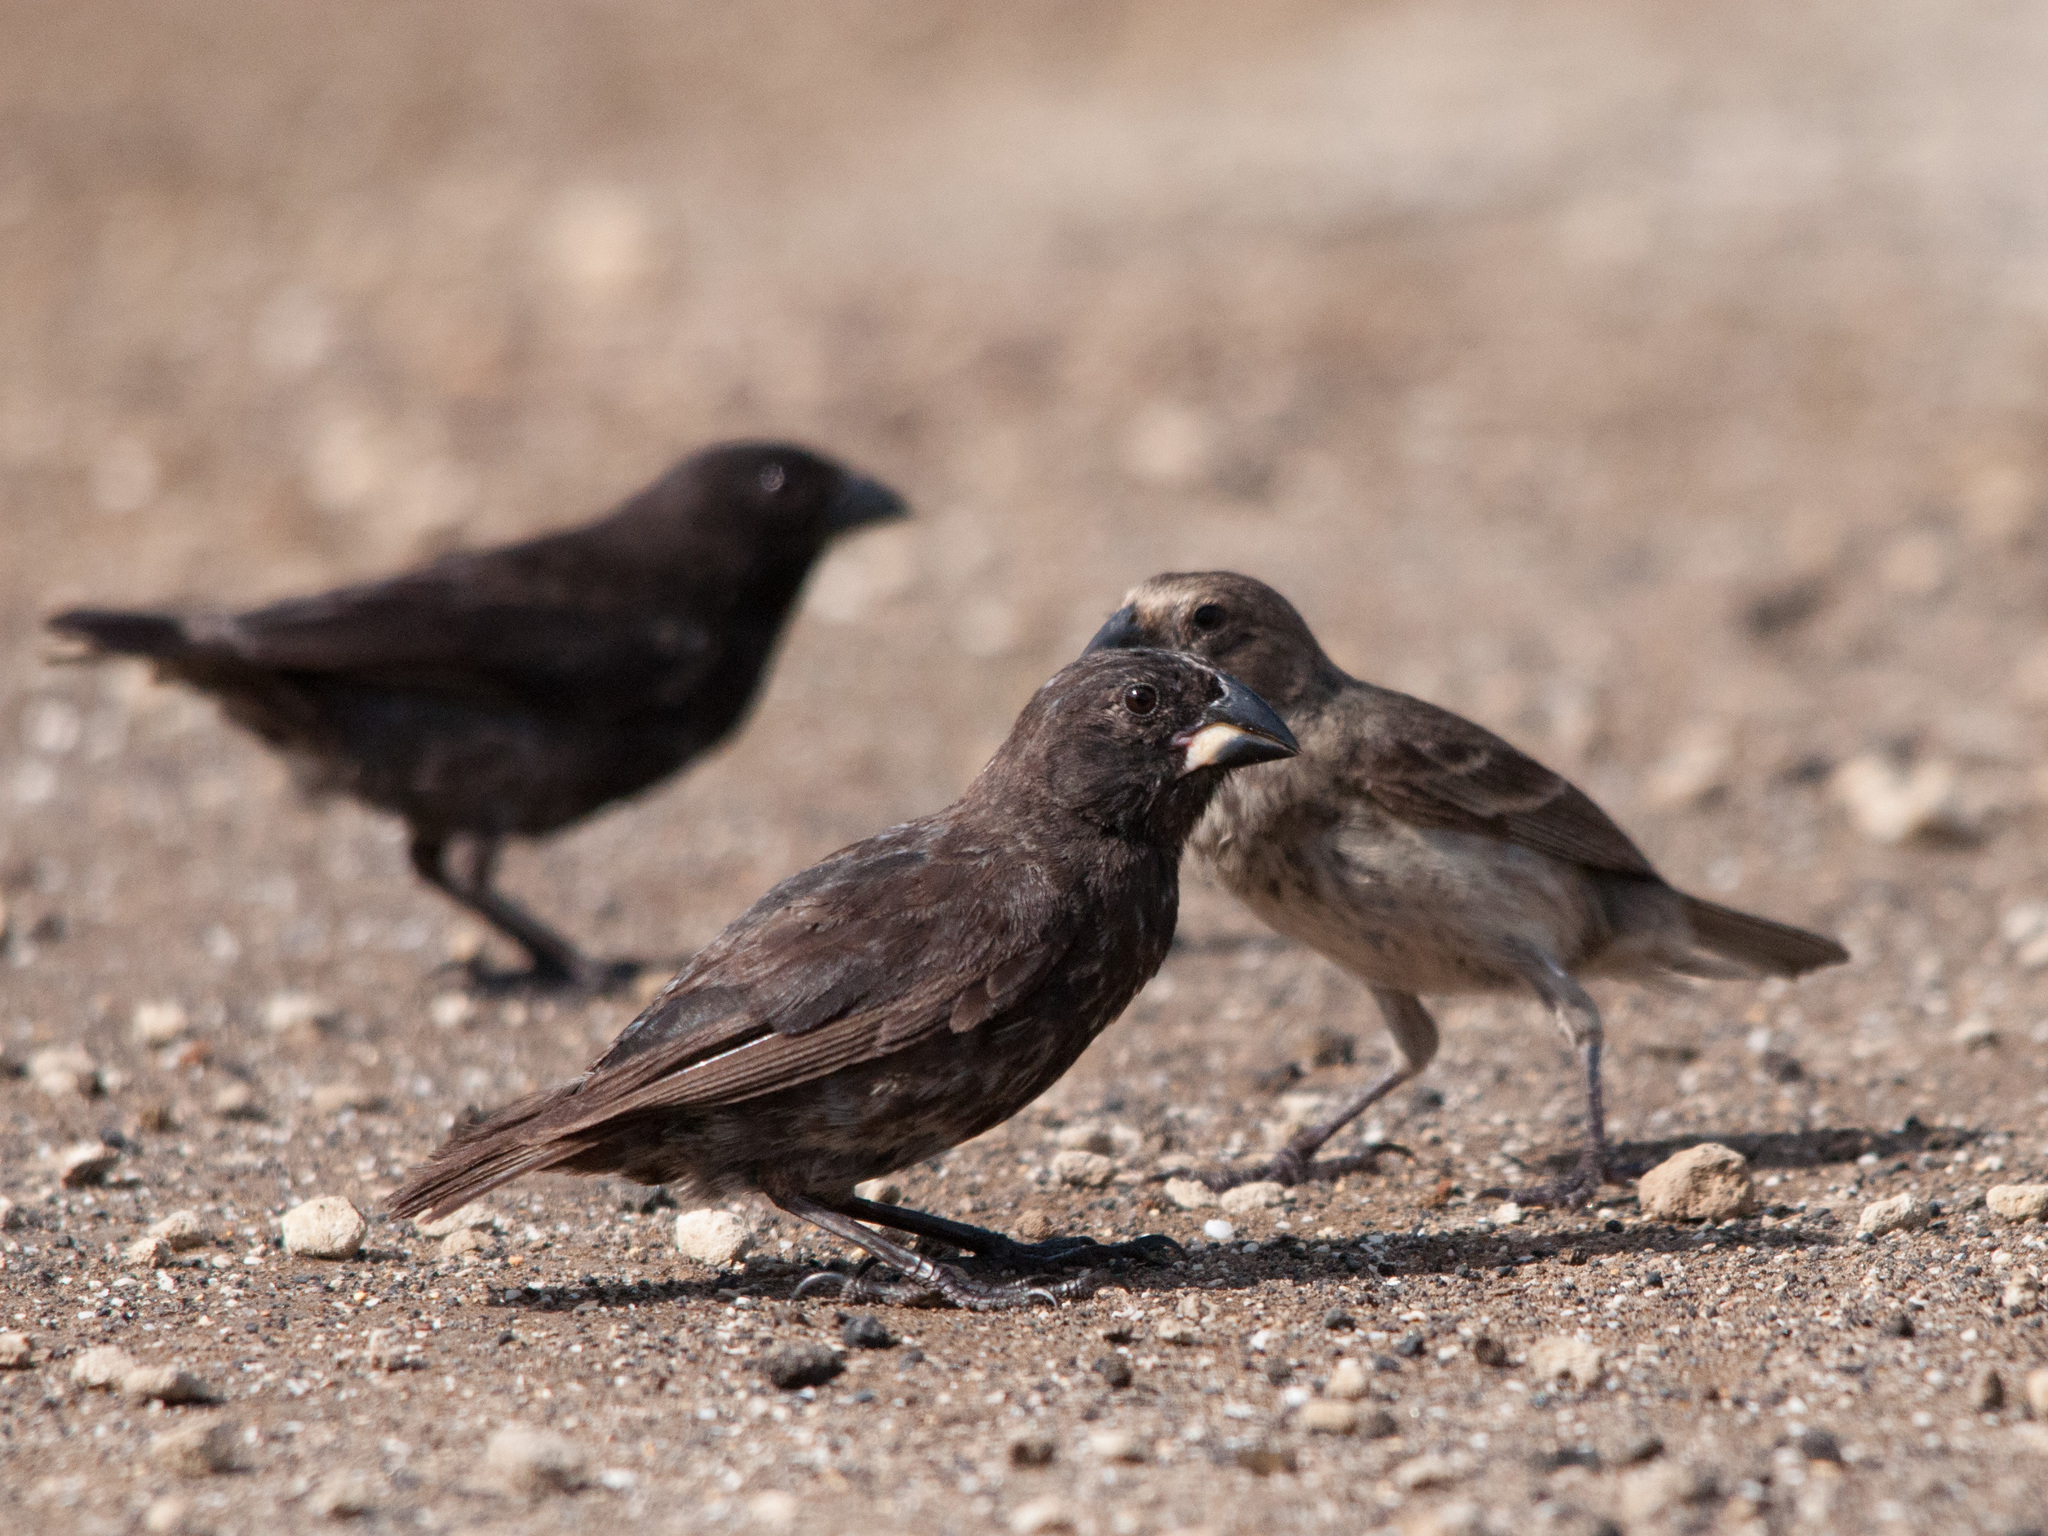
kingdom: Animalia
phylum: Chordata
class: Aves
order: Passeriformes
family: Thraupidae
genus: Geospiza
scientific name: Geospiza fortis
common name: Medium ground finch
